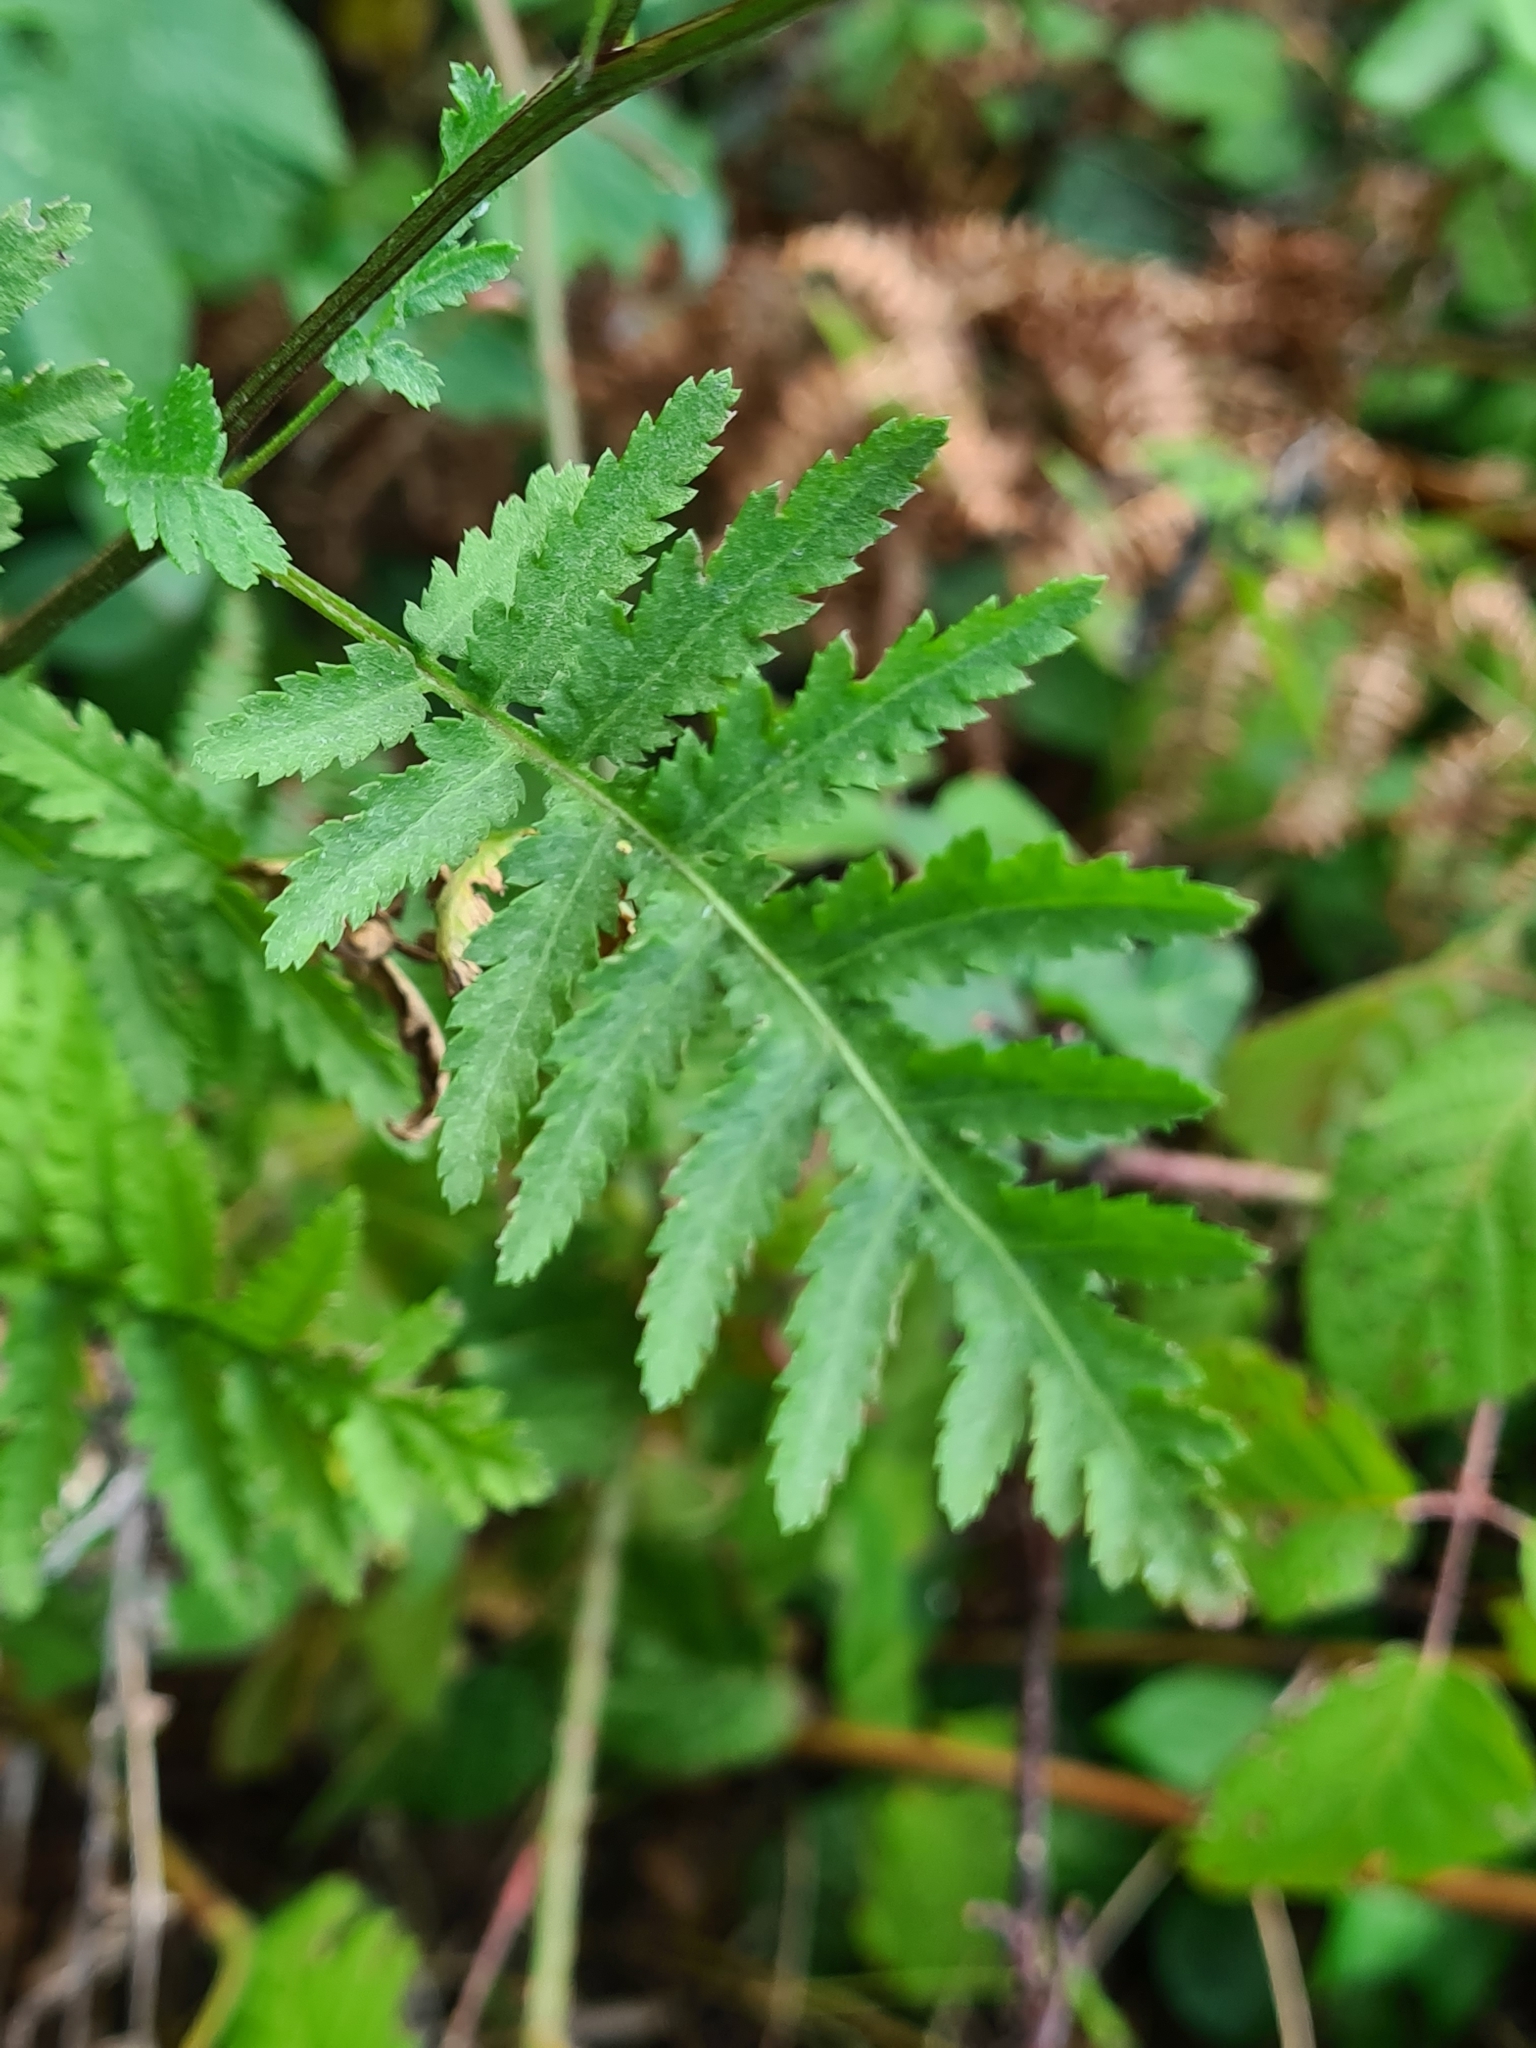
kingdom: Plantae
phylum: Tracheophyta
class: Magnoliopsida
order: Asterales
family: Asteraceae
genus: Tanacetum
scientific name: Tanacetum vulgare
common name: Common tansy
